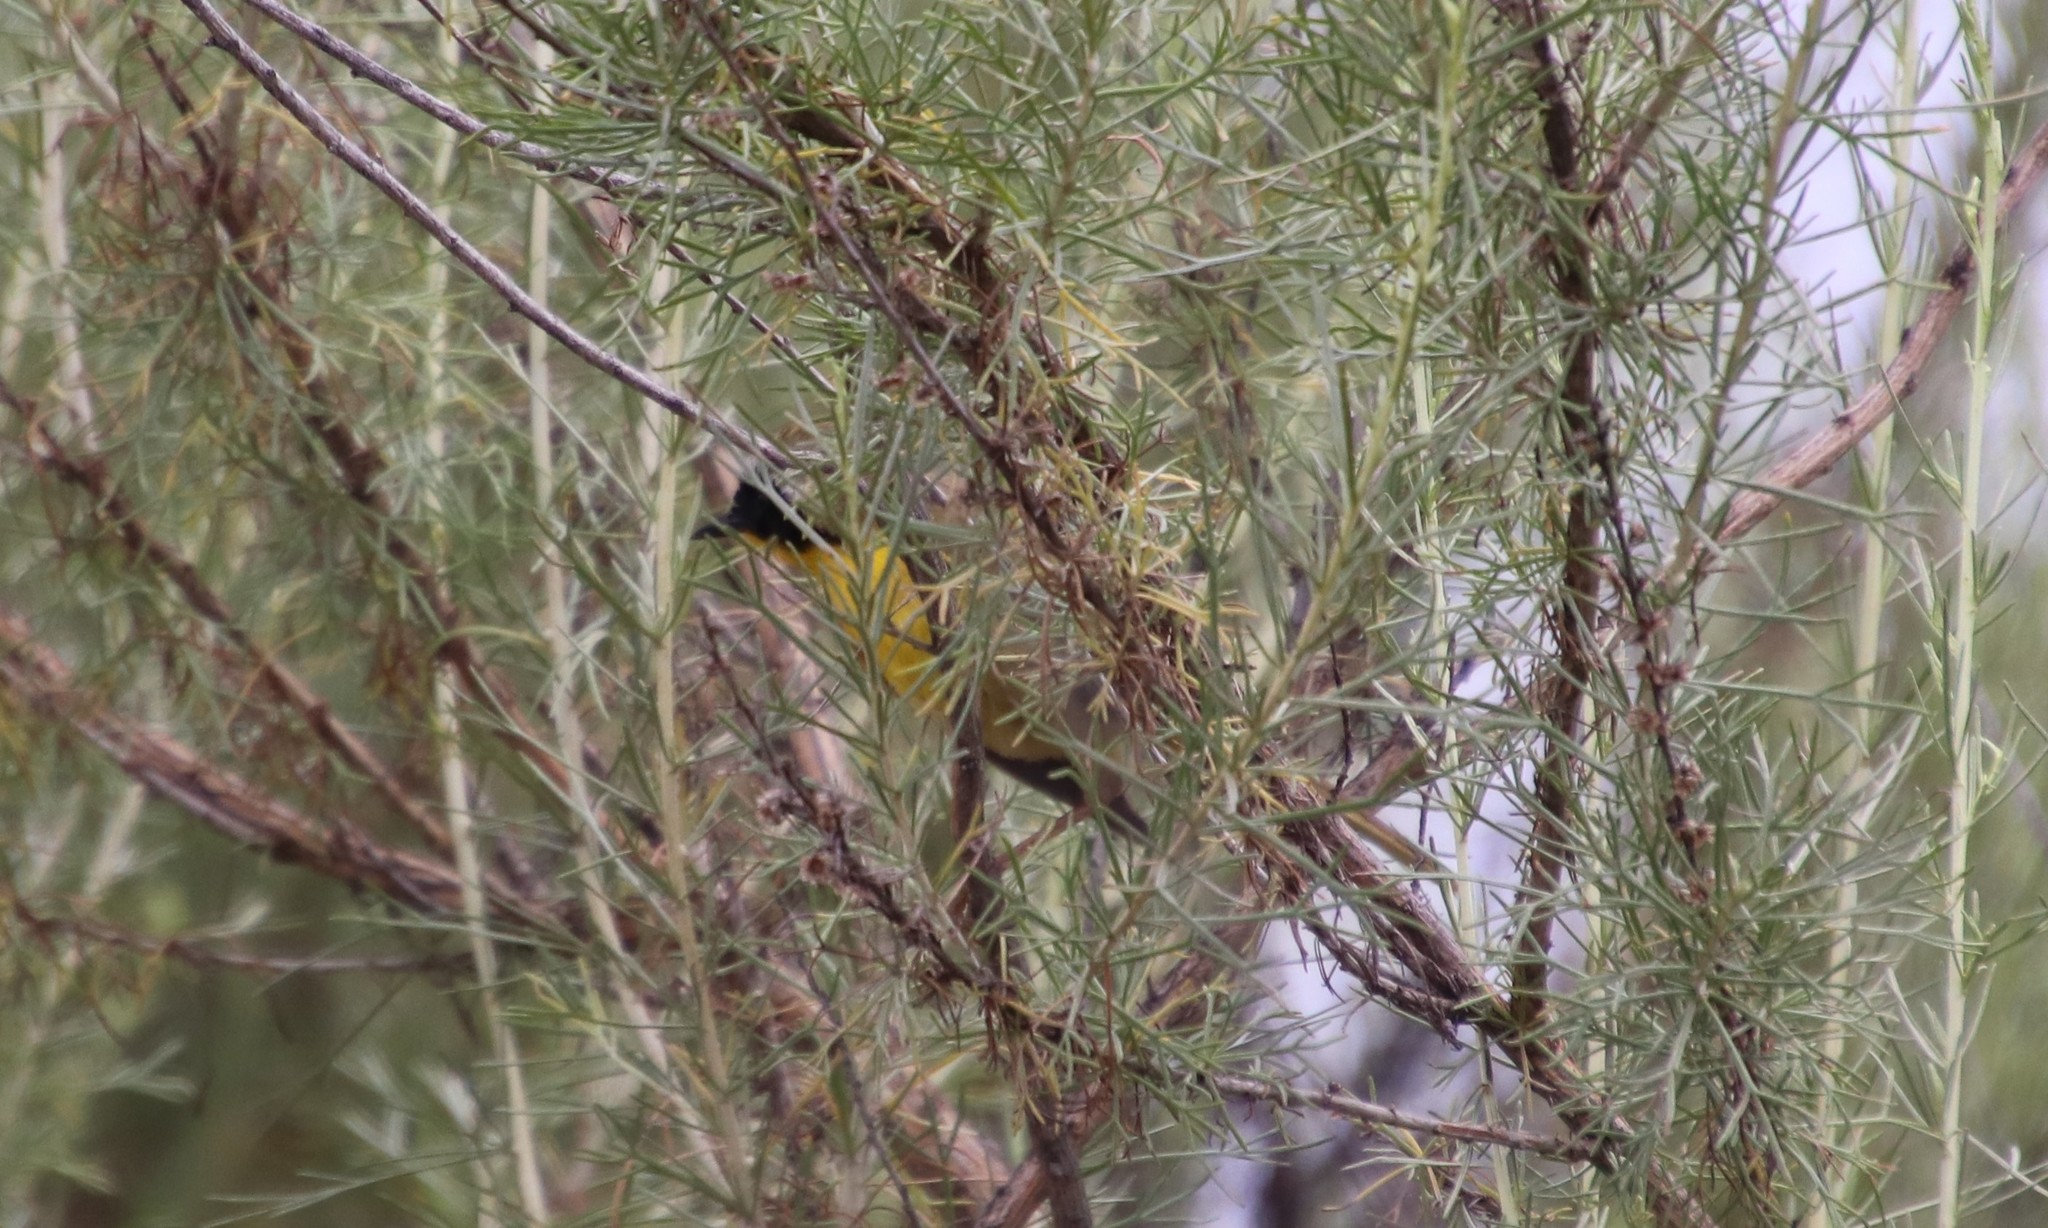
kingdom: Animalia
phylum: Chordata
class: Aves
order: Passeriformes
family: Parulidae
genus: Geothlypis
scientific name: Geothlypis trichas
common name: Common yellowthroat
